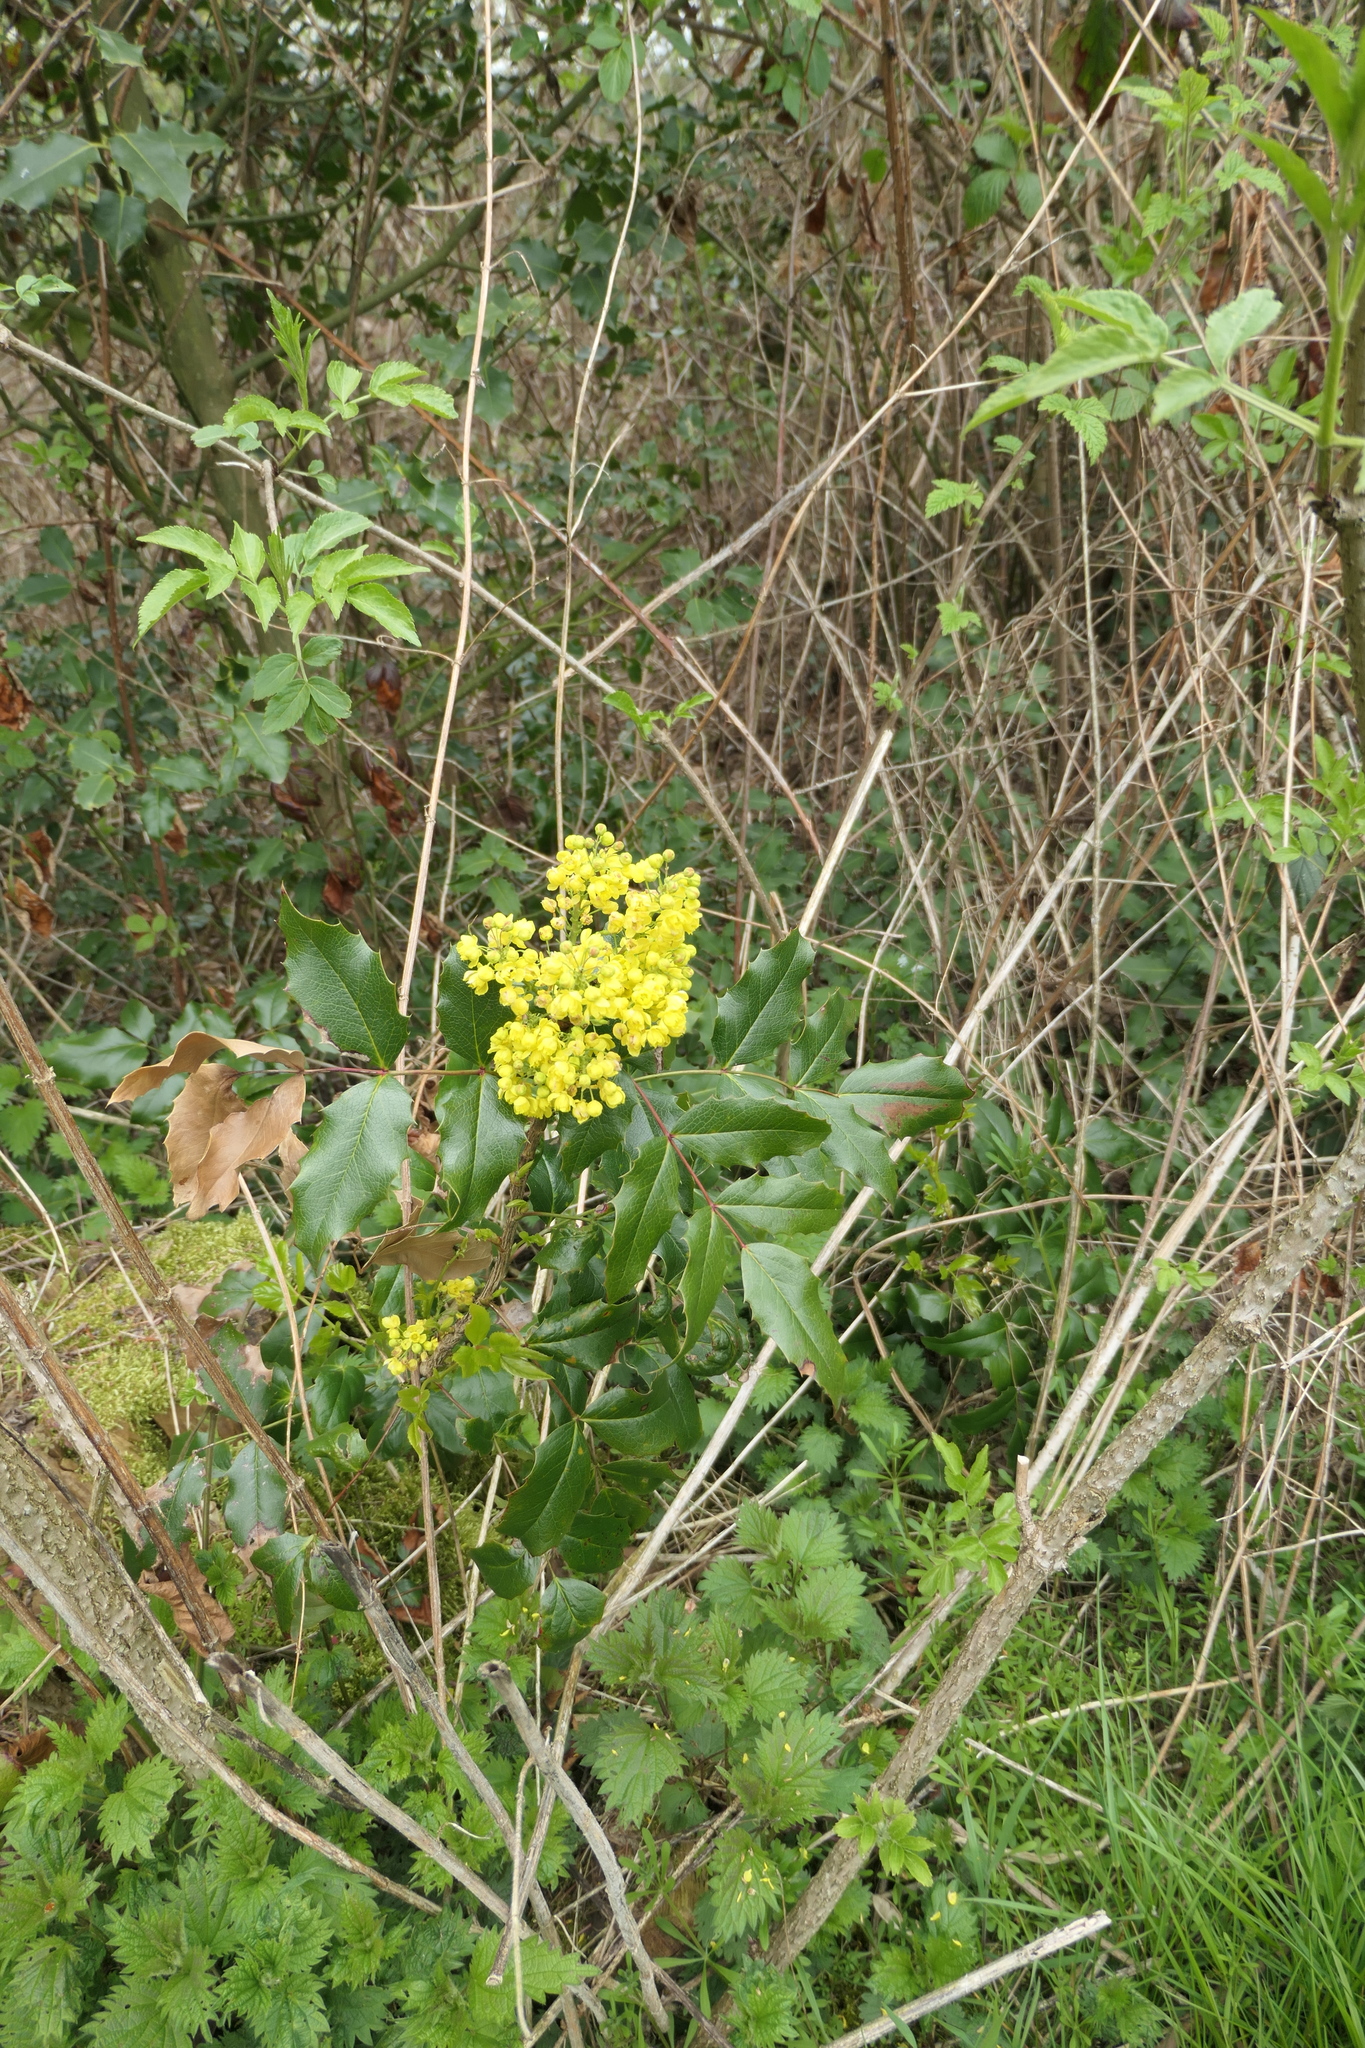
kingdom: Plantae
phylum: Tracheophyta
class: Magnoliopsida
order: Ranunculales
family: Berberidaceae
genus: Mahonia
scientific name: Mahonia aquifolium
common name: Oregon-grape
